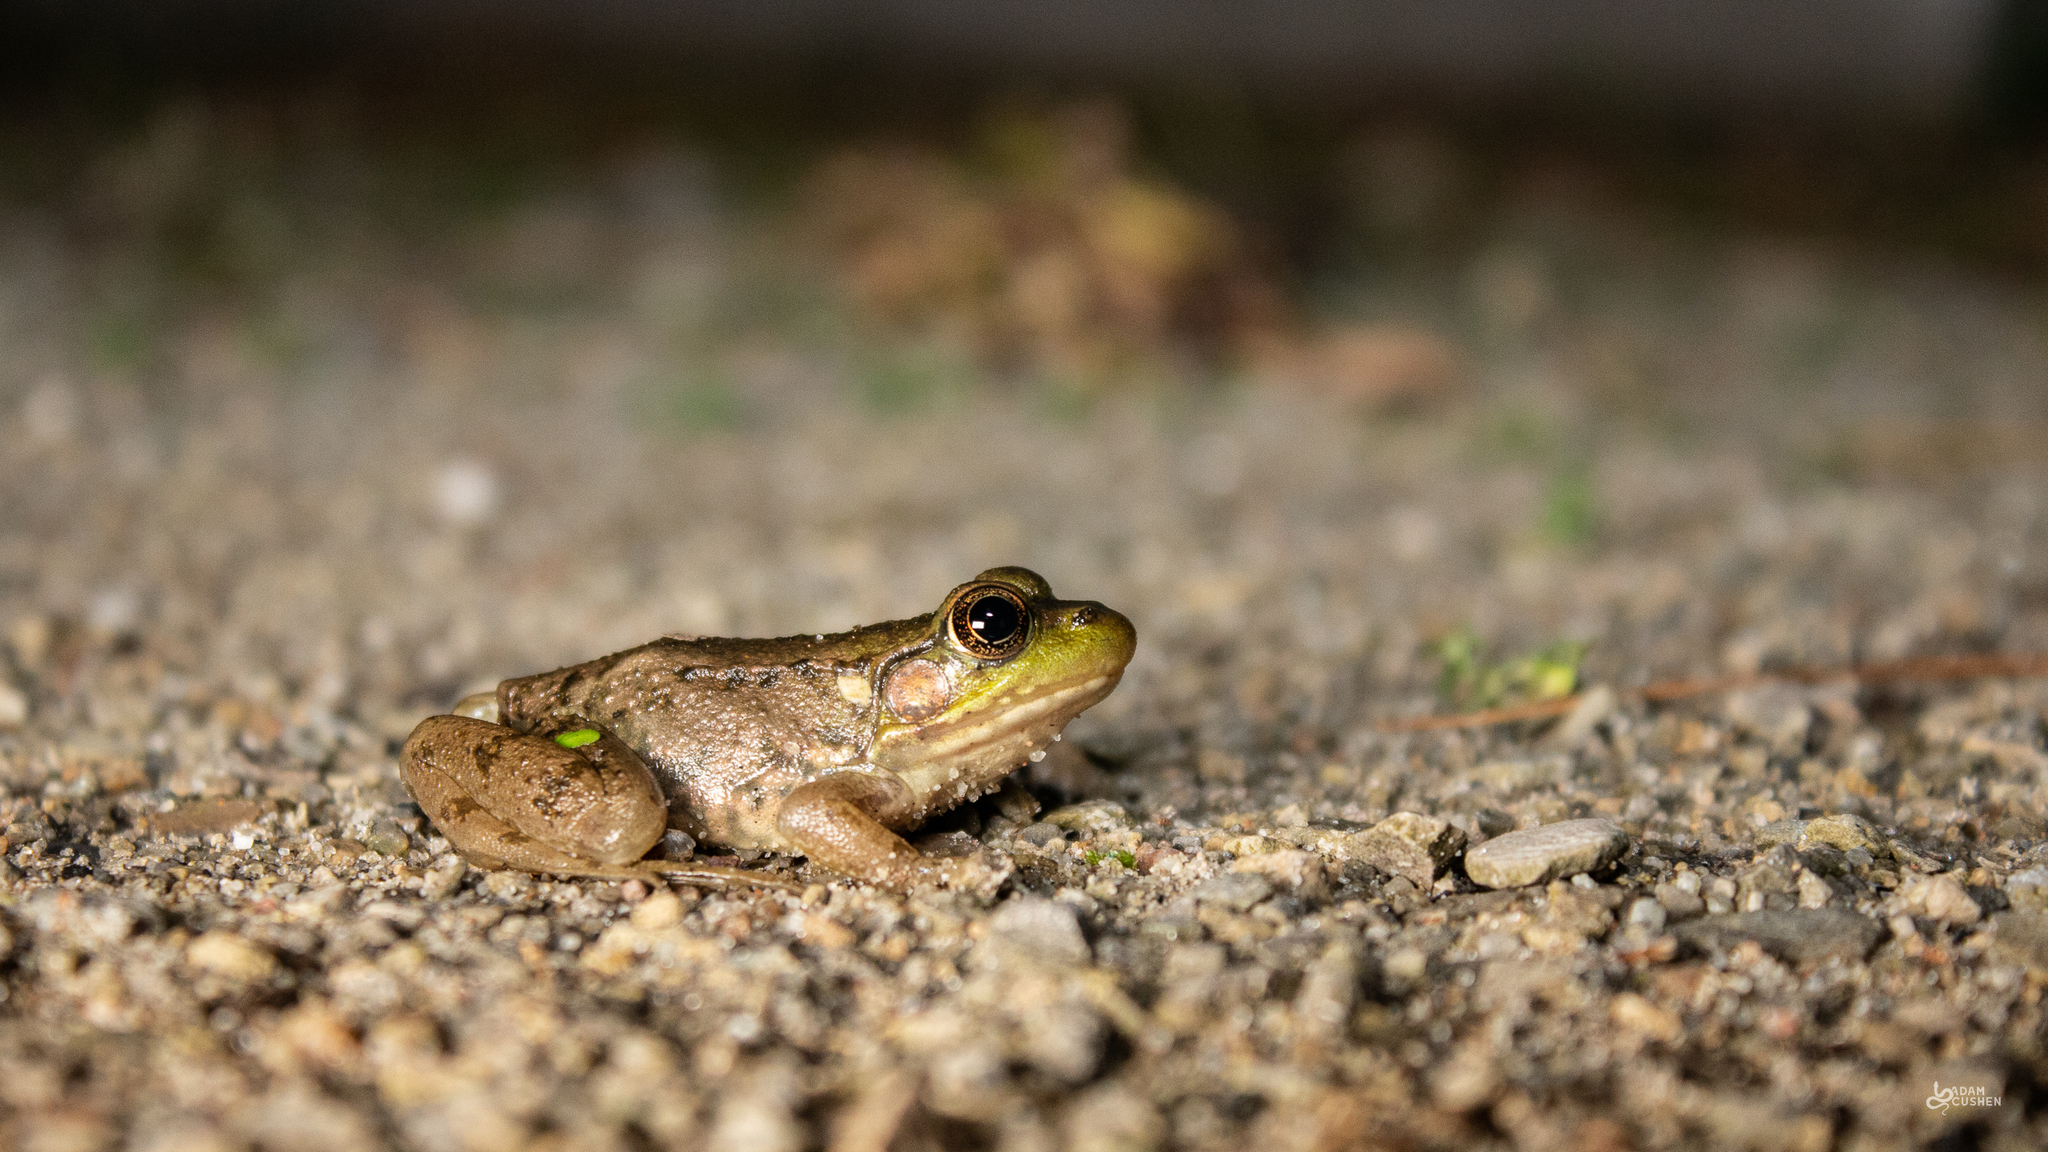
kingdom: Animalia
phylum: Chordata
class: Amphibia
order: Anura
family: Ranidae
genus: Lithobates
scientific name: Lithobates clamitans
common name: Green frog
